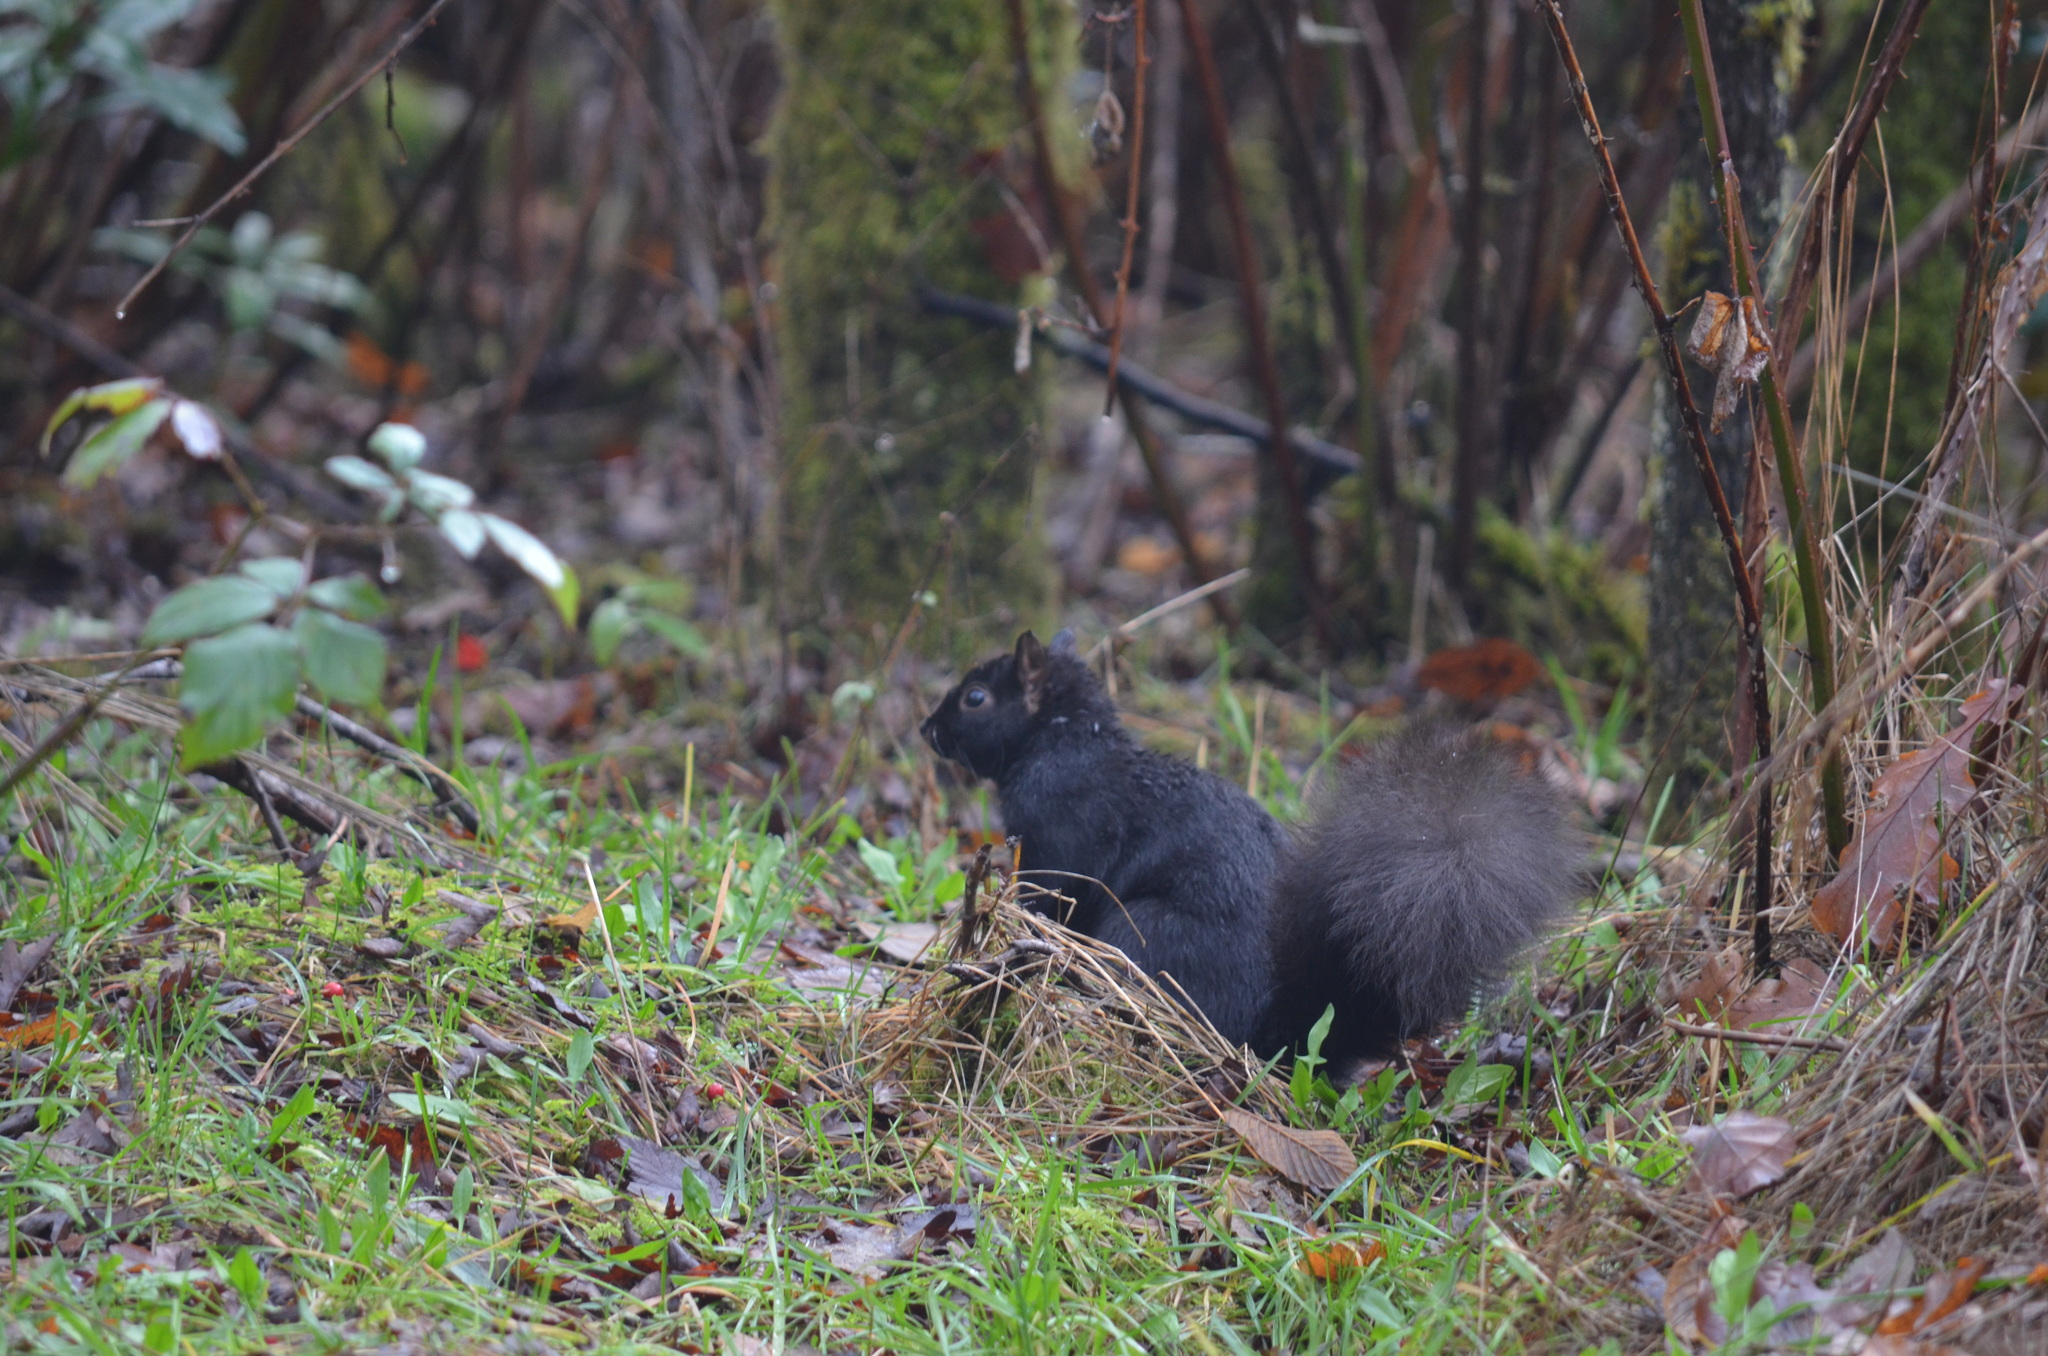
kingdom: Animalia
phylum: Chordata
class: Mammalia
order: Rodentia
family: Sciuridae
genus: Sciurus
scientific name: Sciurus carolinensis
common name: Eastern gray squirrel
